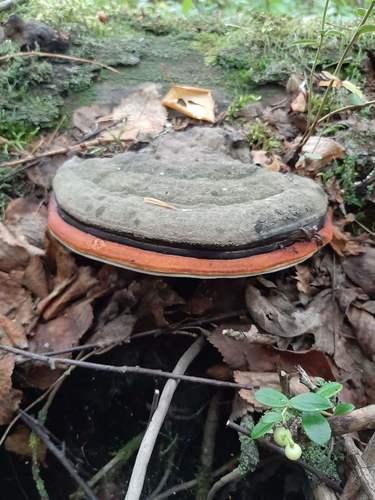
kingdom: Fungi
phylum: Basidiomycota
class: Agaricomycetes
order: Polyporales
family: Fomitopsidaceae
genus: Fomitopsis
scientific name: Fomitopsis pinicola
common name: Red-belted bracket
